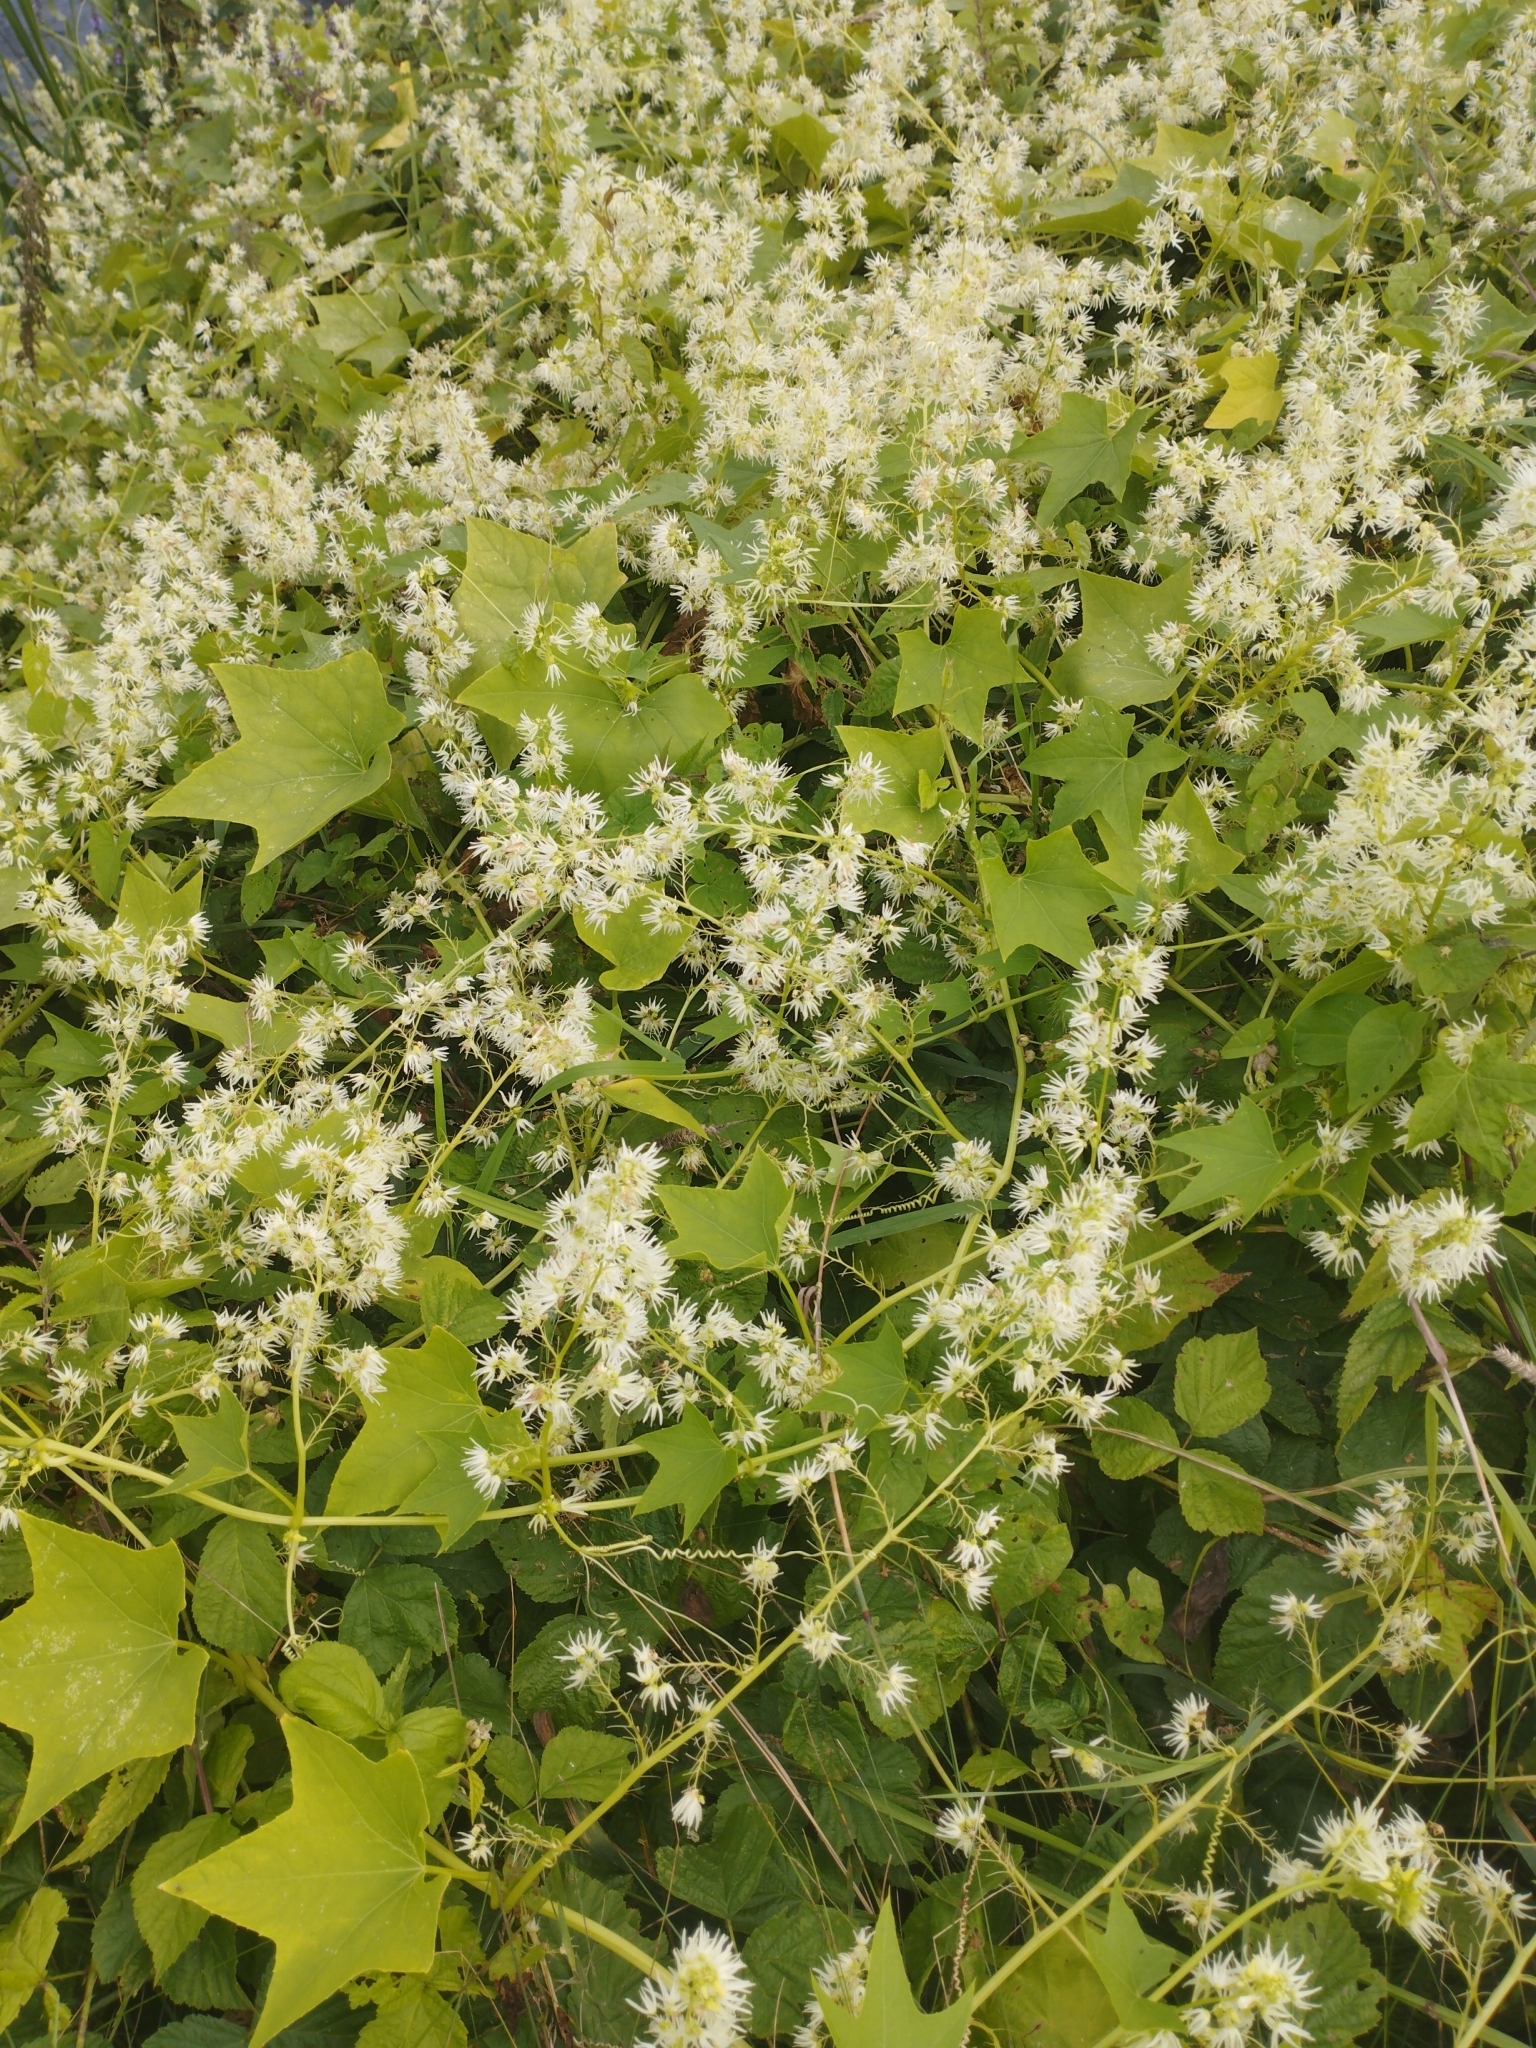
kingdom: Plantae
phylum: Tracheophyta
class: Magnoliopsida
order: Cucurbitales
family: Cucurbitaceae
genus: Echinocystis
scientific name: Echinocystis lobata
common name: Wild cucumber
